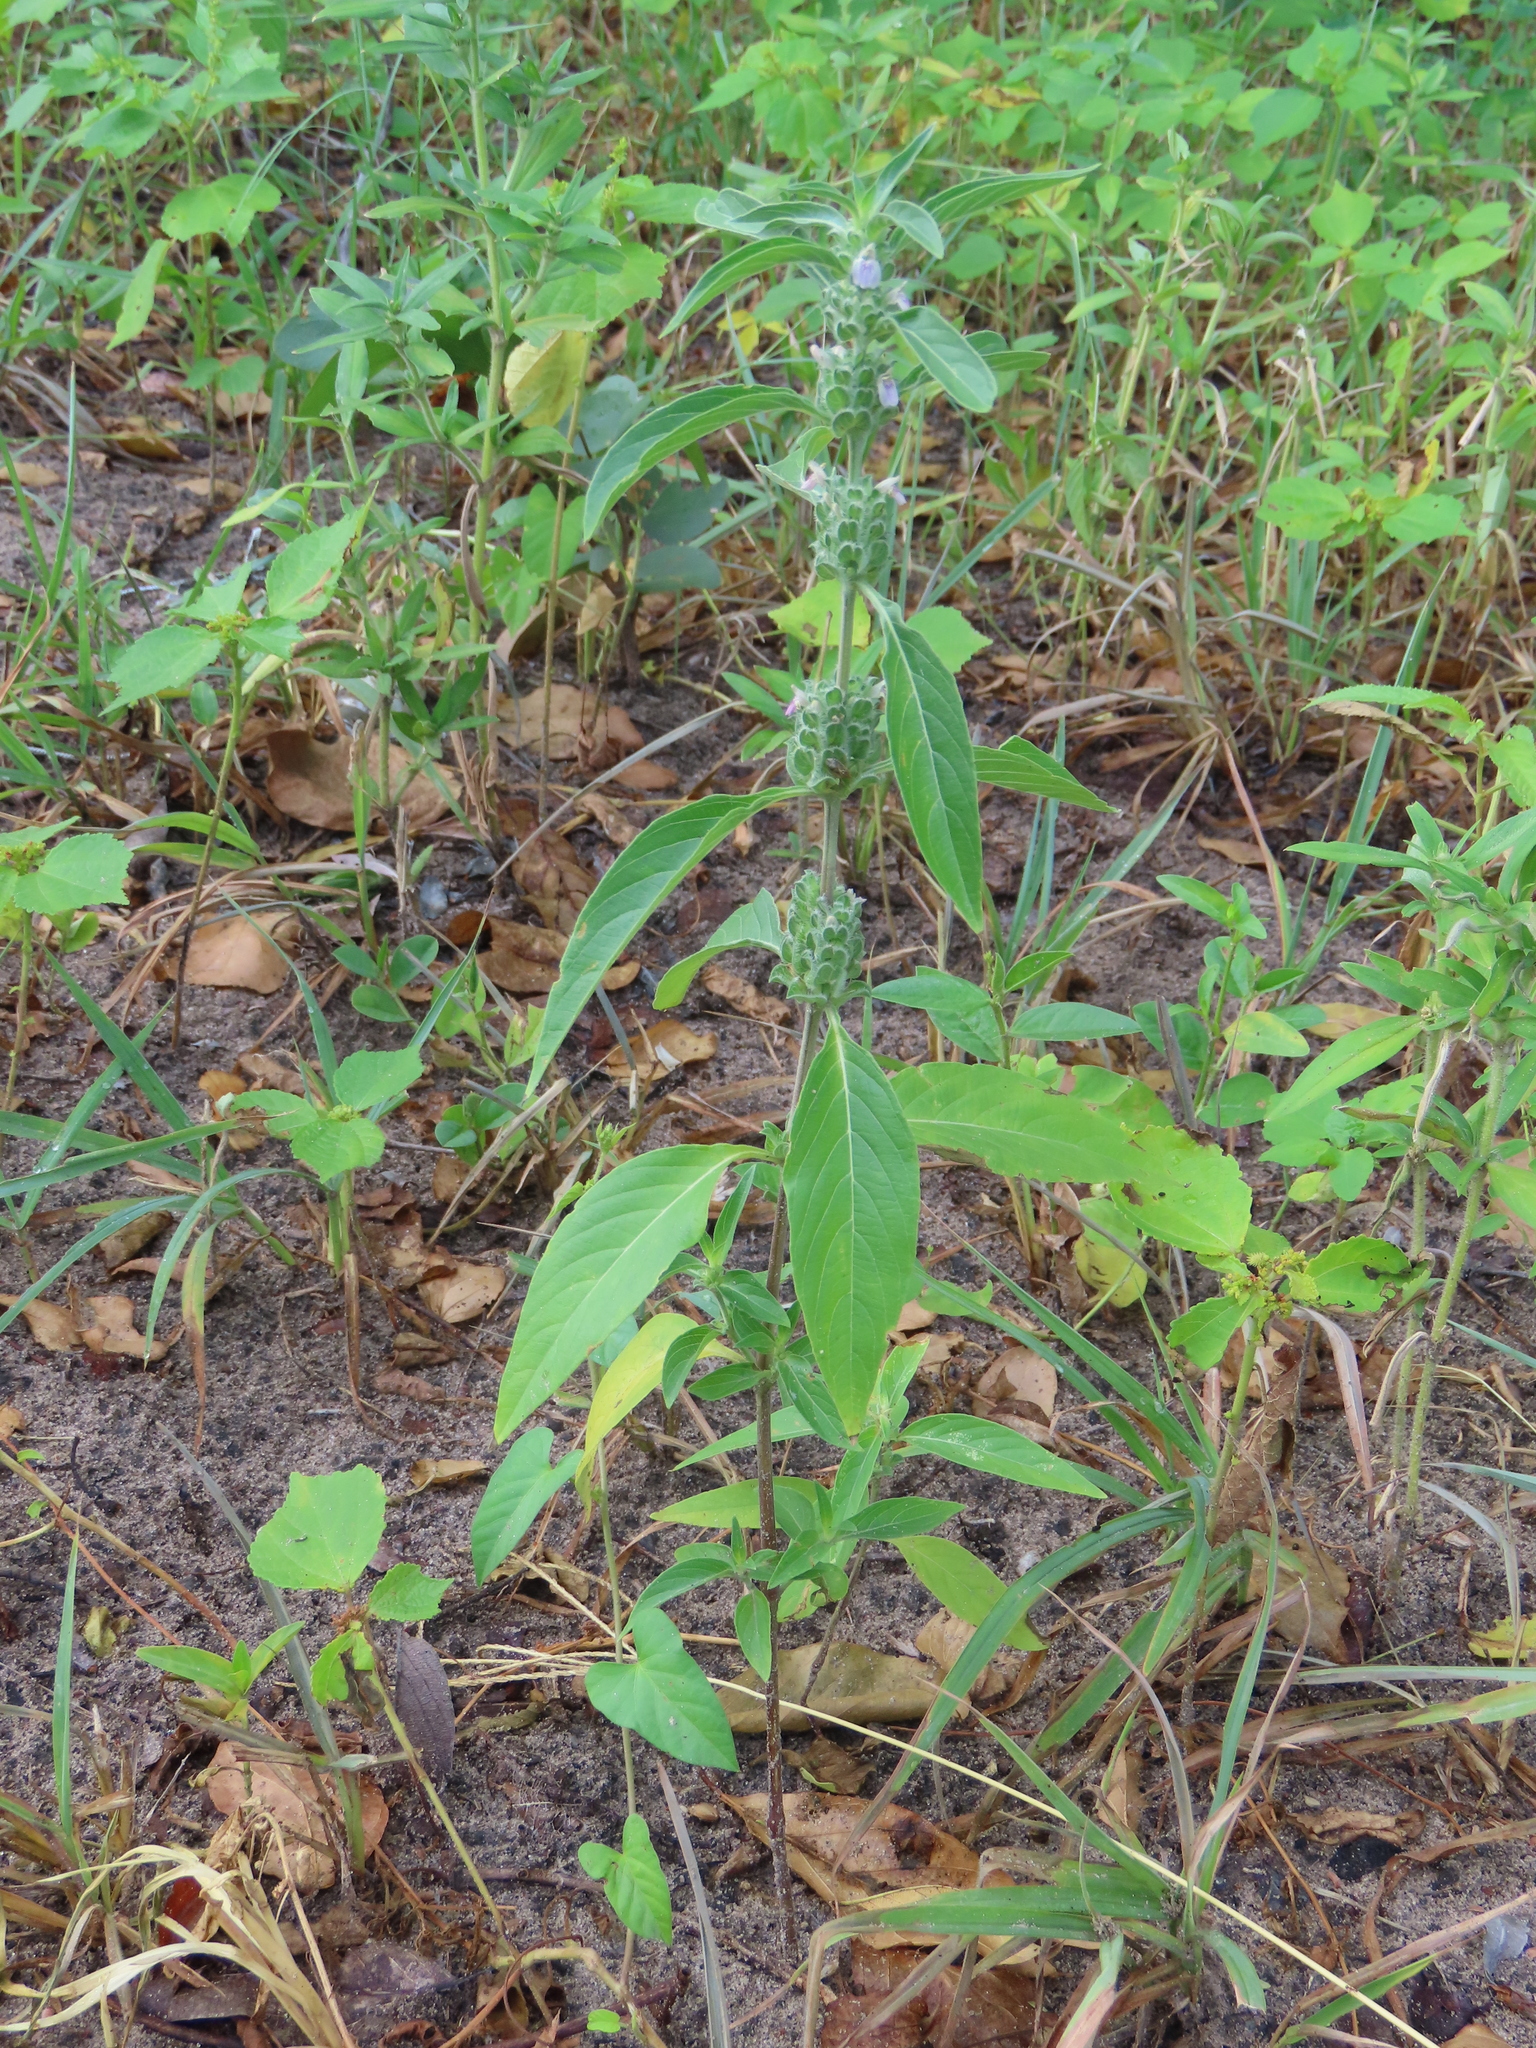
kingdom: Plantae
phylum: Tracheophyta
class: Magnoliopsida
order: Lamiales
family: Acanthaceae
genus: Monechma
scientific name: Monechma
